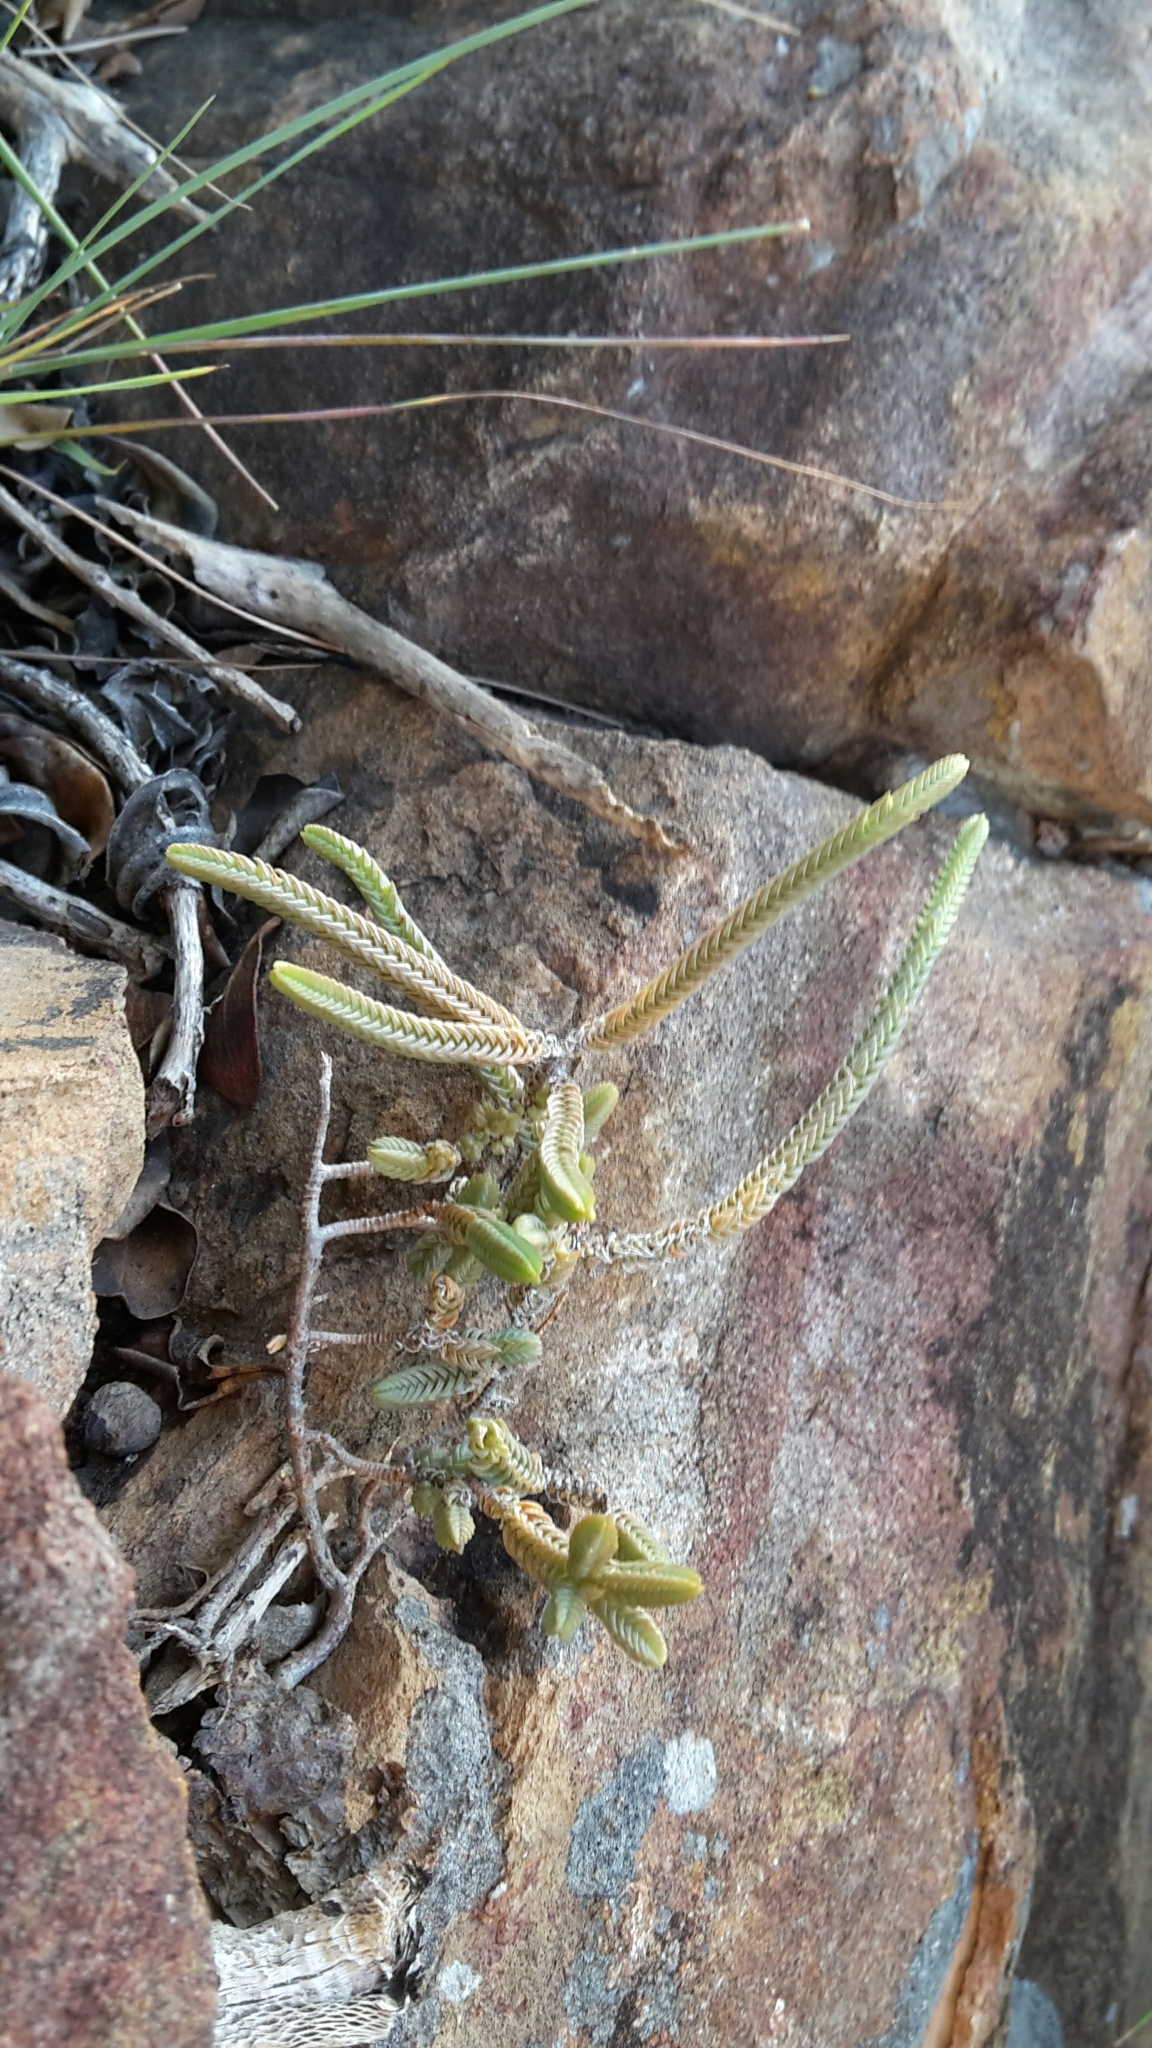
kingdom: Plantae
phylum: Tracheophyta
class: Magnoliopsida
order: Saxifragales
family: Crassulaceae
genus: Crassula
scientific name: Crassula muscosa
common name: Toy-cypress
